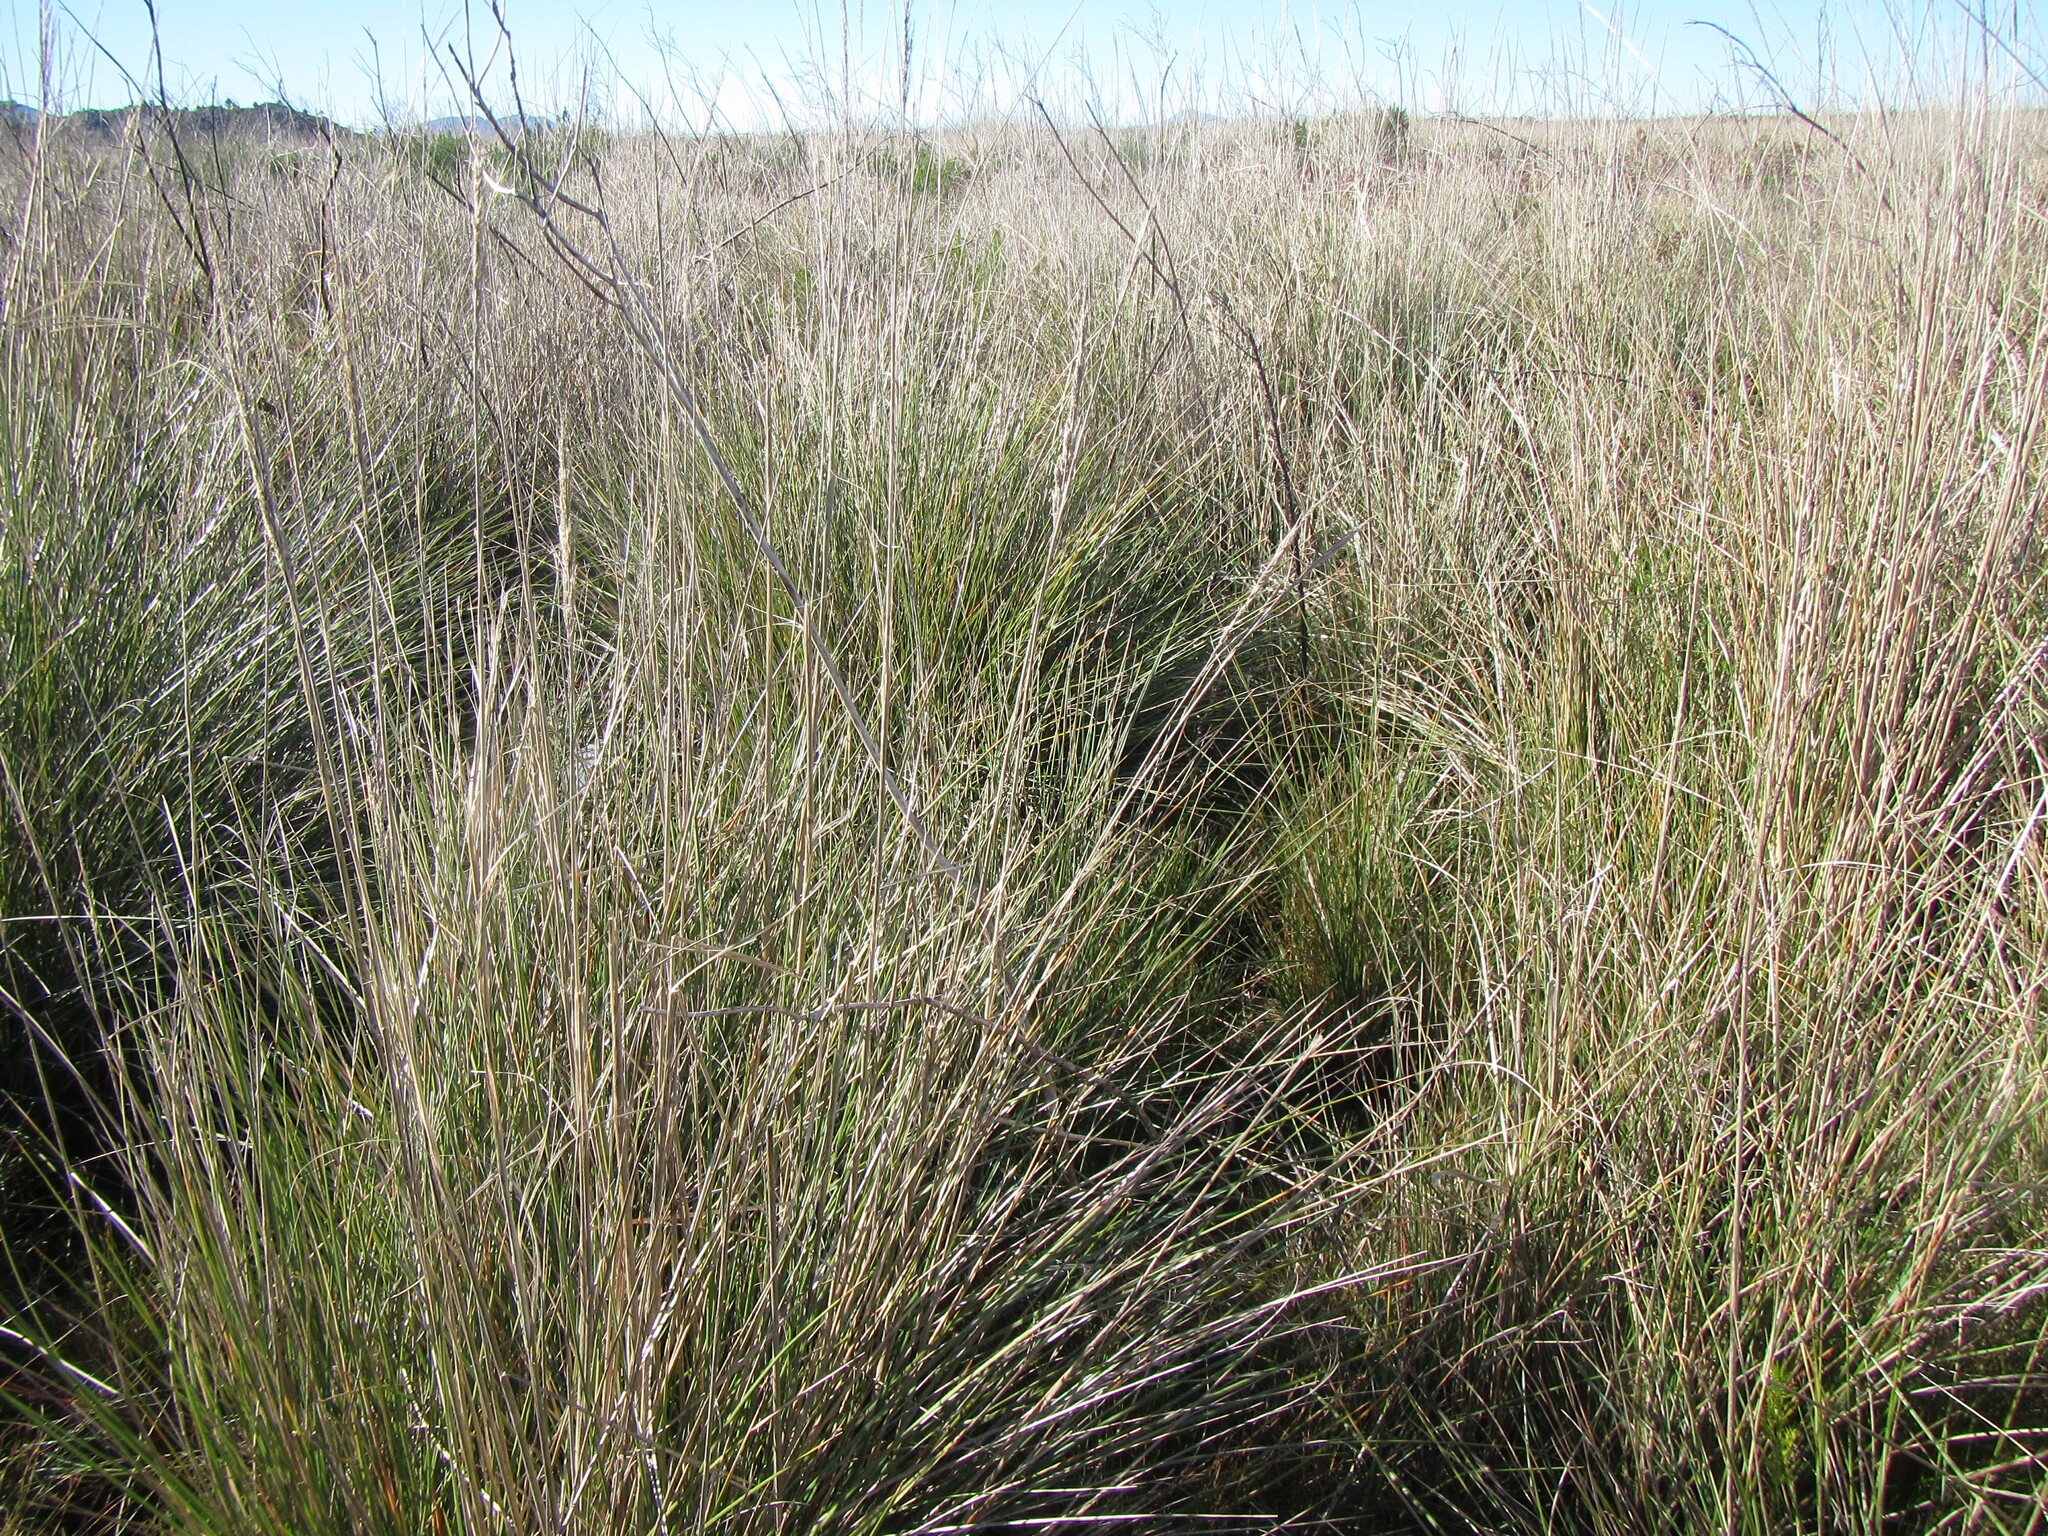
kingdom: Plantae
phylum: Tracheophyta
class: Liliopsida
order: Poales
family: Poaceae
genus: Capeochloa
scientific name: Capeochloa cincta
